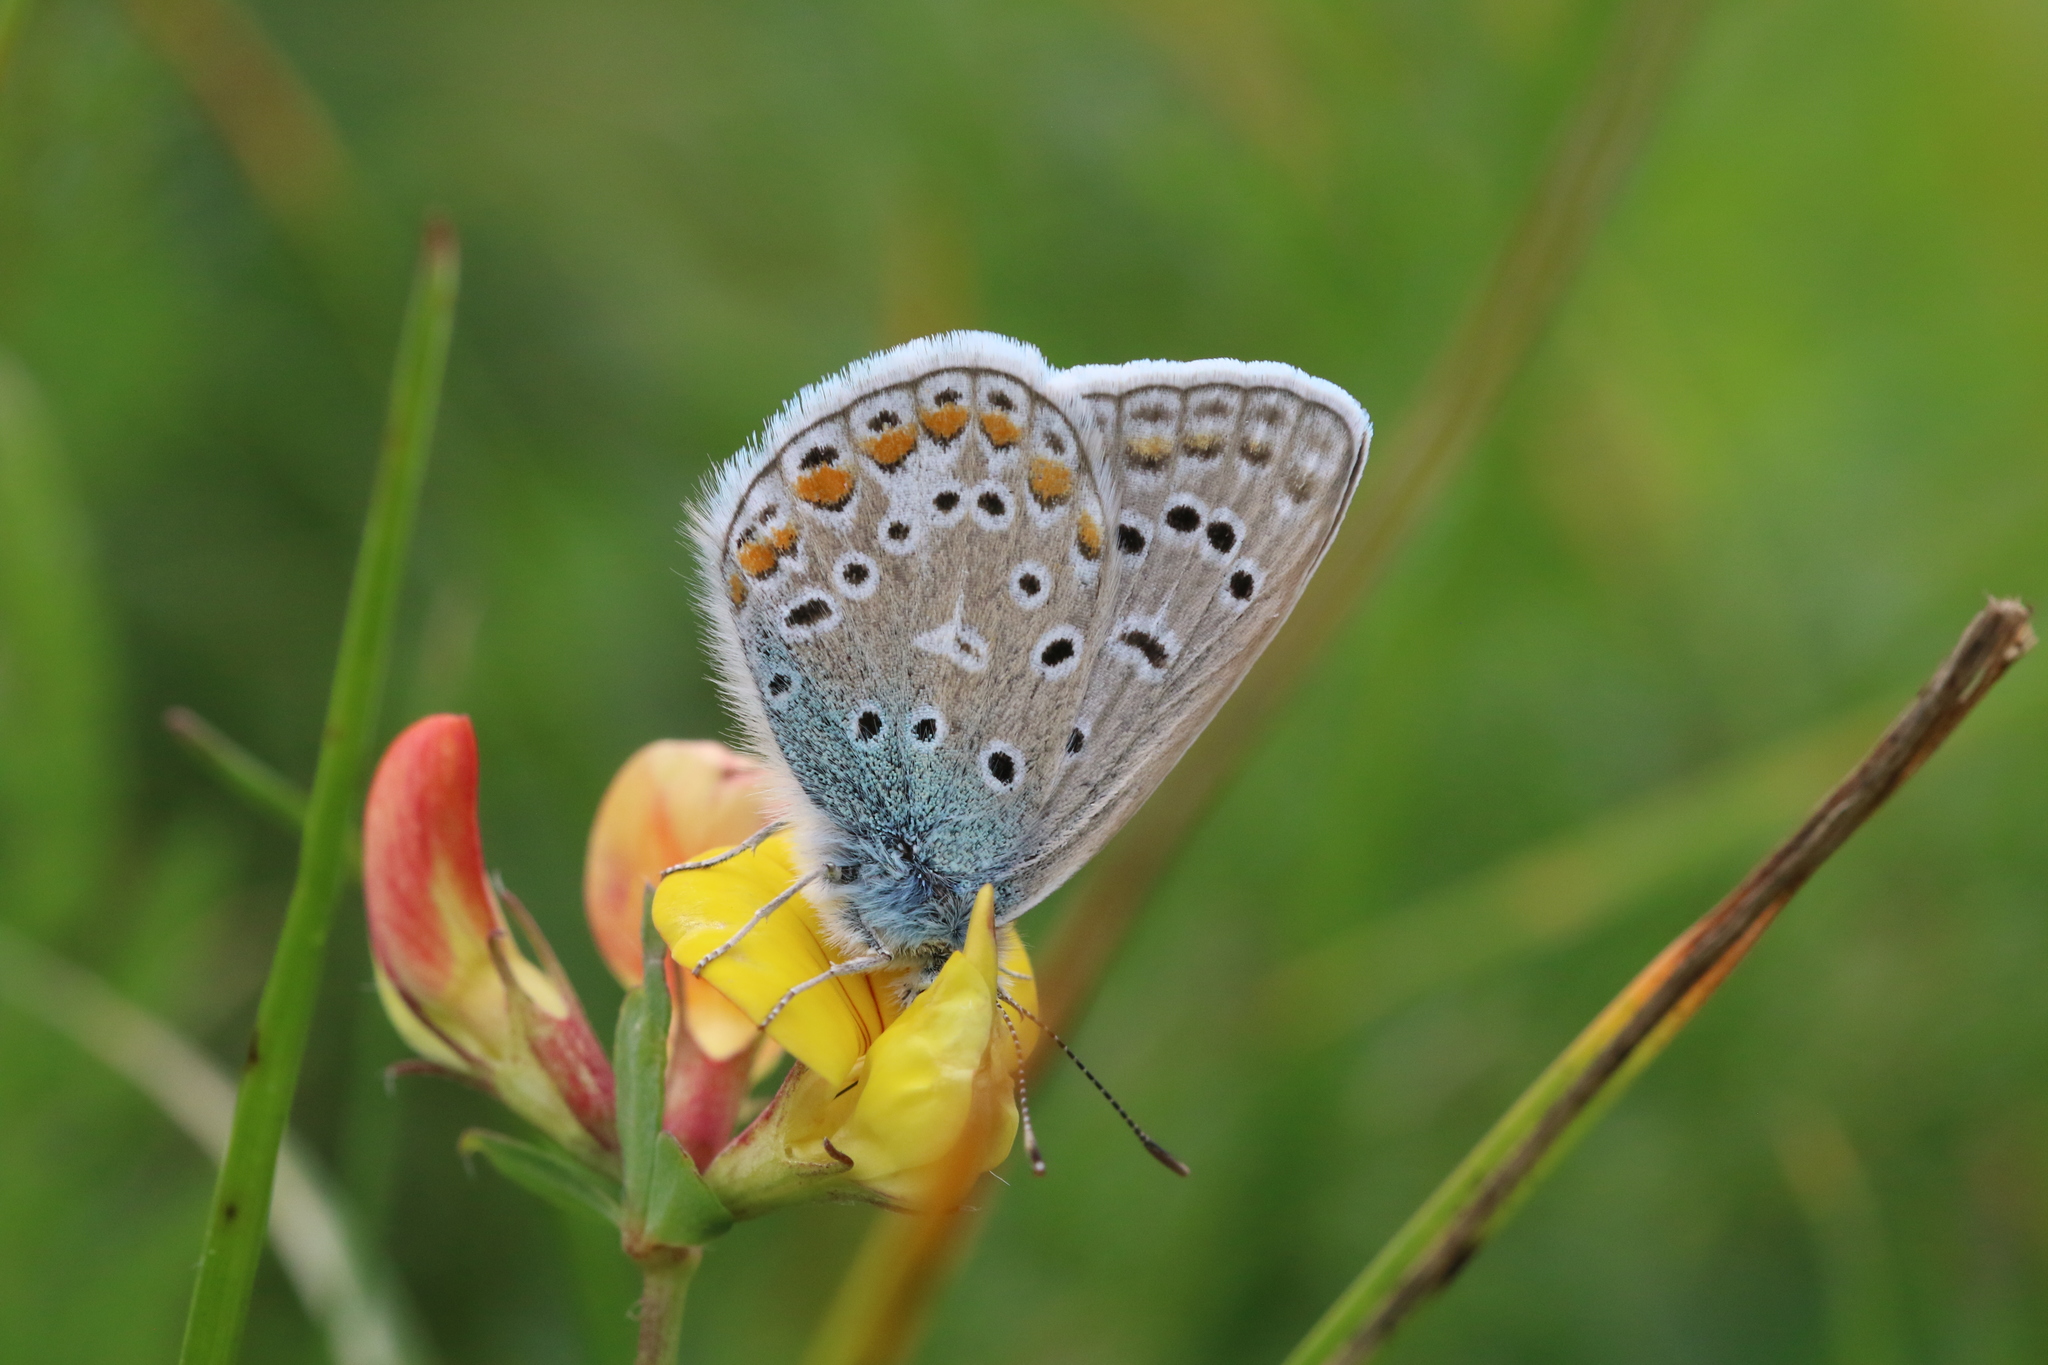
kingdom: Animalia
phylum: Arthropoda
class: Insecta
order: Lepidoptera
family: Lycaenidae
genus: Polyommatus
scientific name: Polyommatus icarus
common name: Common blue
